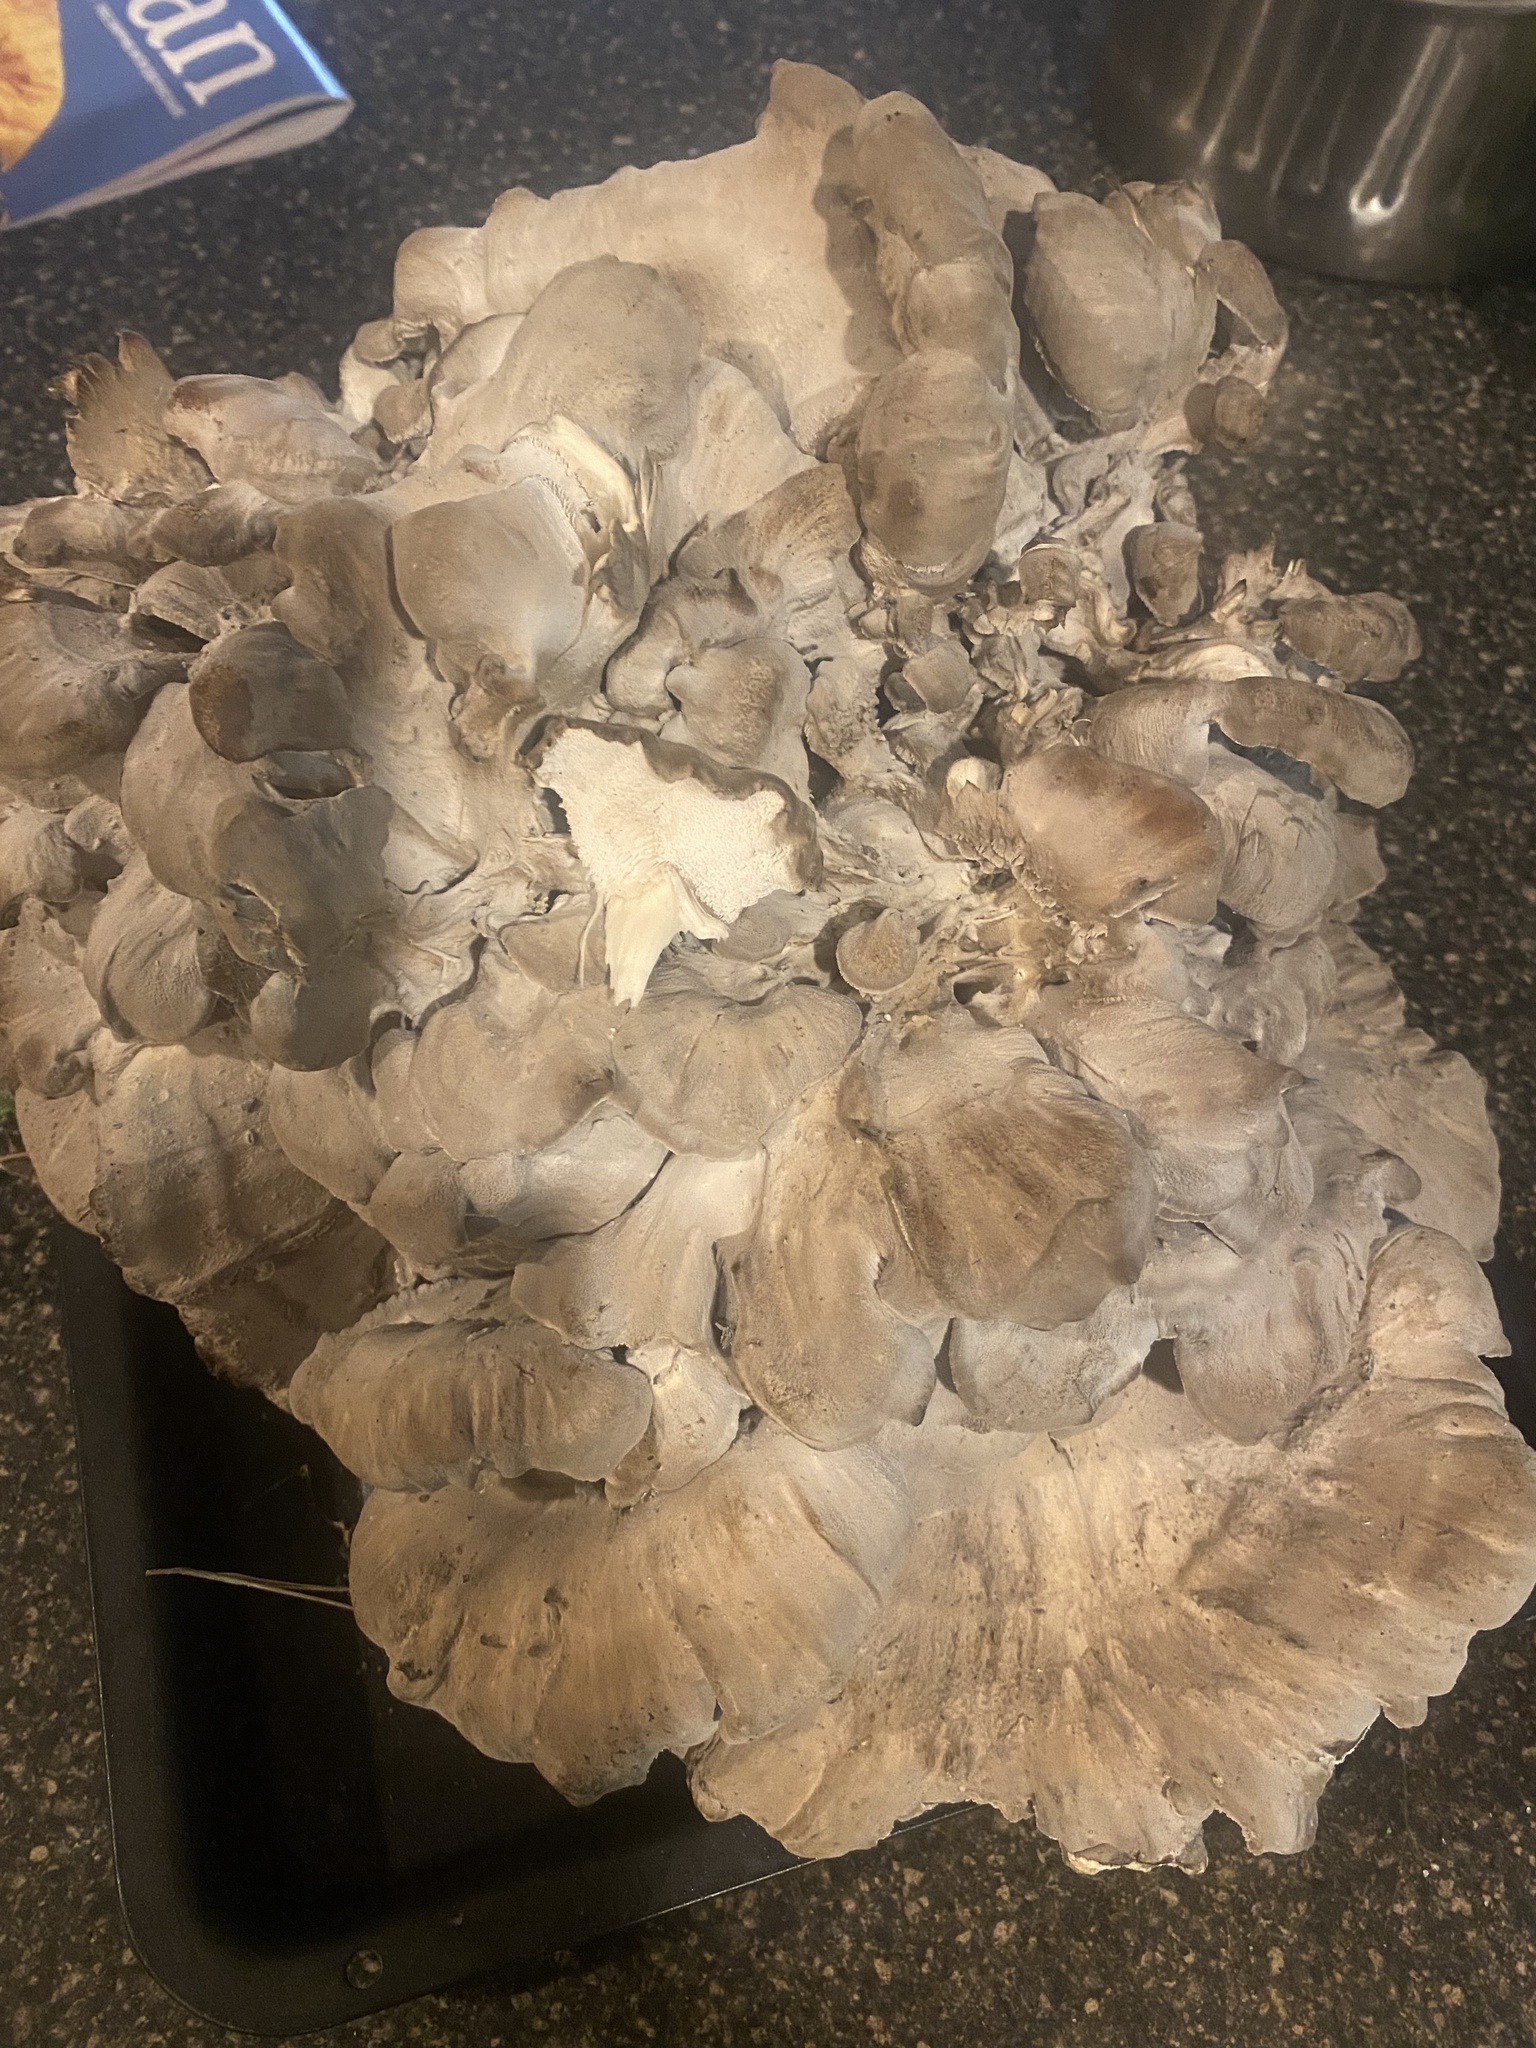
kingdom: Fungi
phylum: Basidiomycota
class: Agaricomycetes
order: Polyporales
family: Grifolaceae
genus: Grifola
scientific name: Grifola frondosa
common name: Hen of the woods
